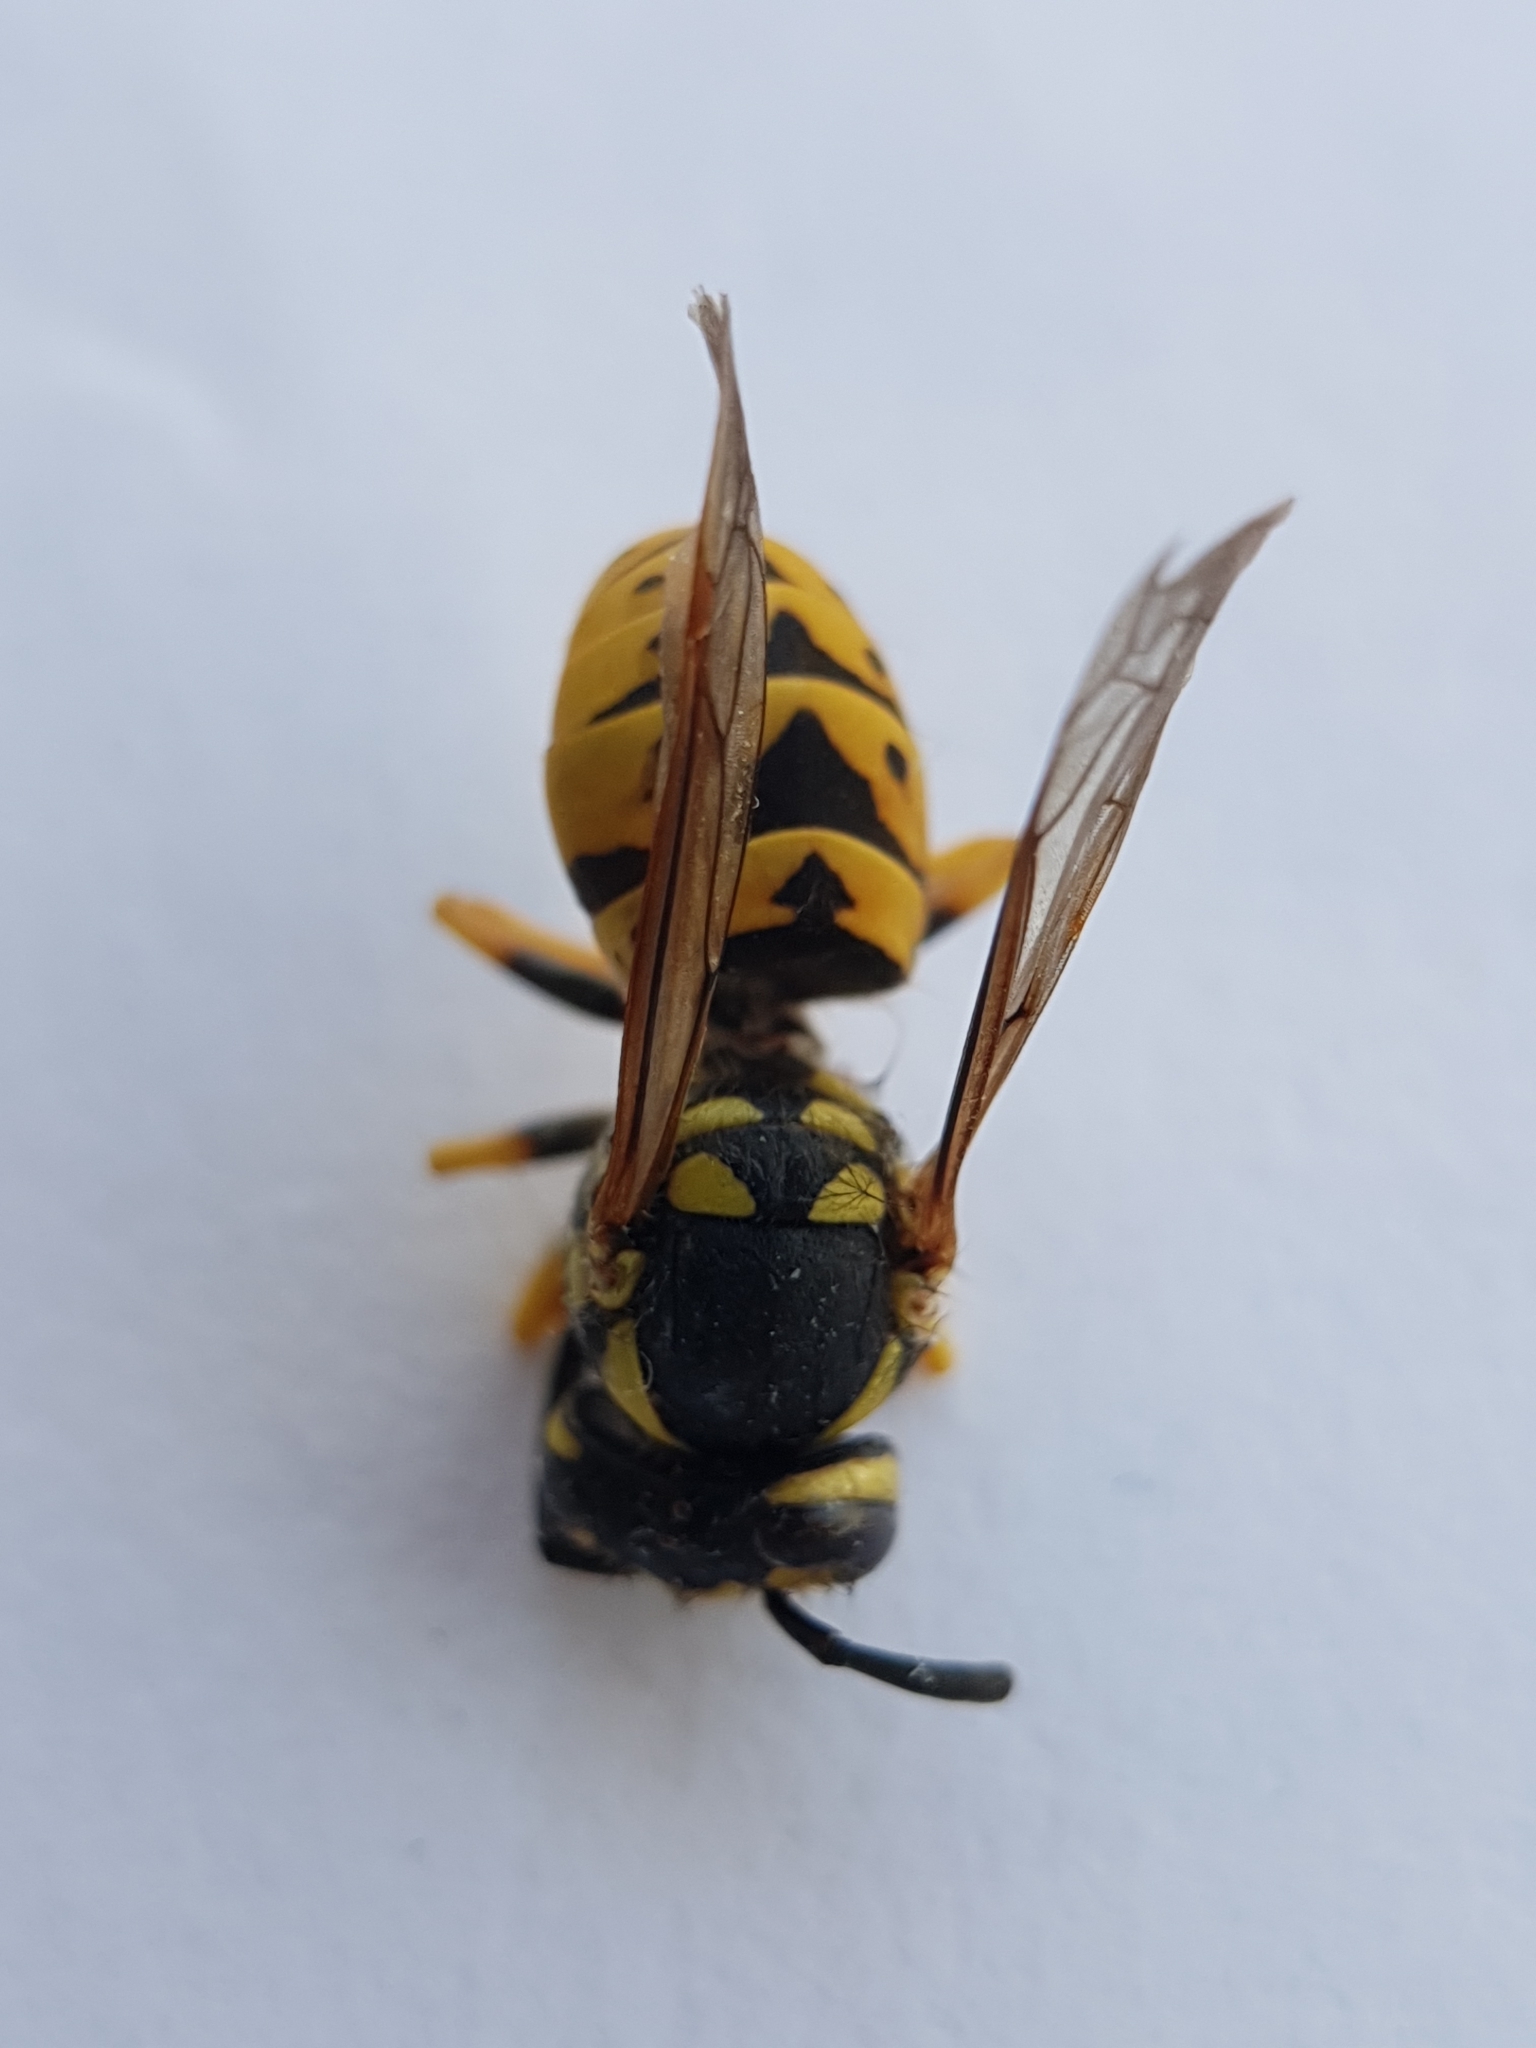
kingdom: Animalia
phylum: Arthropoda
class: Insecta
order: Hymenoptera
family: Vespidae
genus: Vespula
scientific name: Vespula germanica
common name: German wasp
